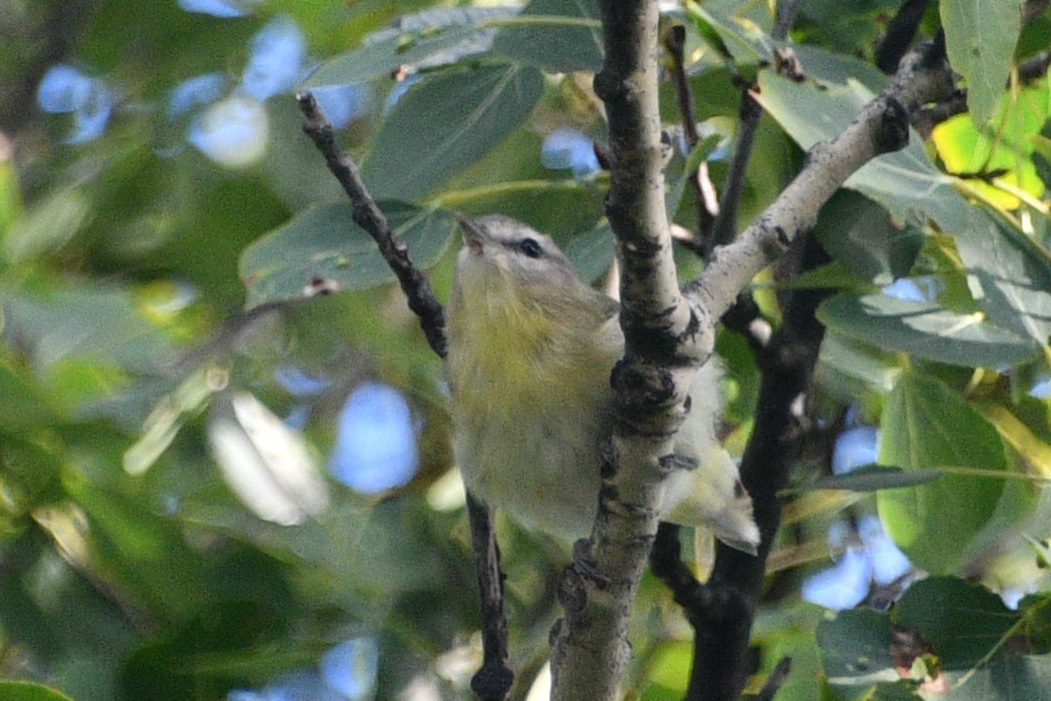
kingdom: Animalia
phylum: Chordata
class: Aves
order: Passeriformes
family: Vireonidae
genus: Vireo
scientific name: Vireo philadelphicus
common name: Philadelphia vireo
